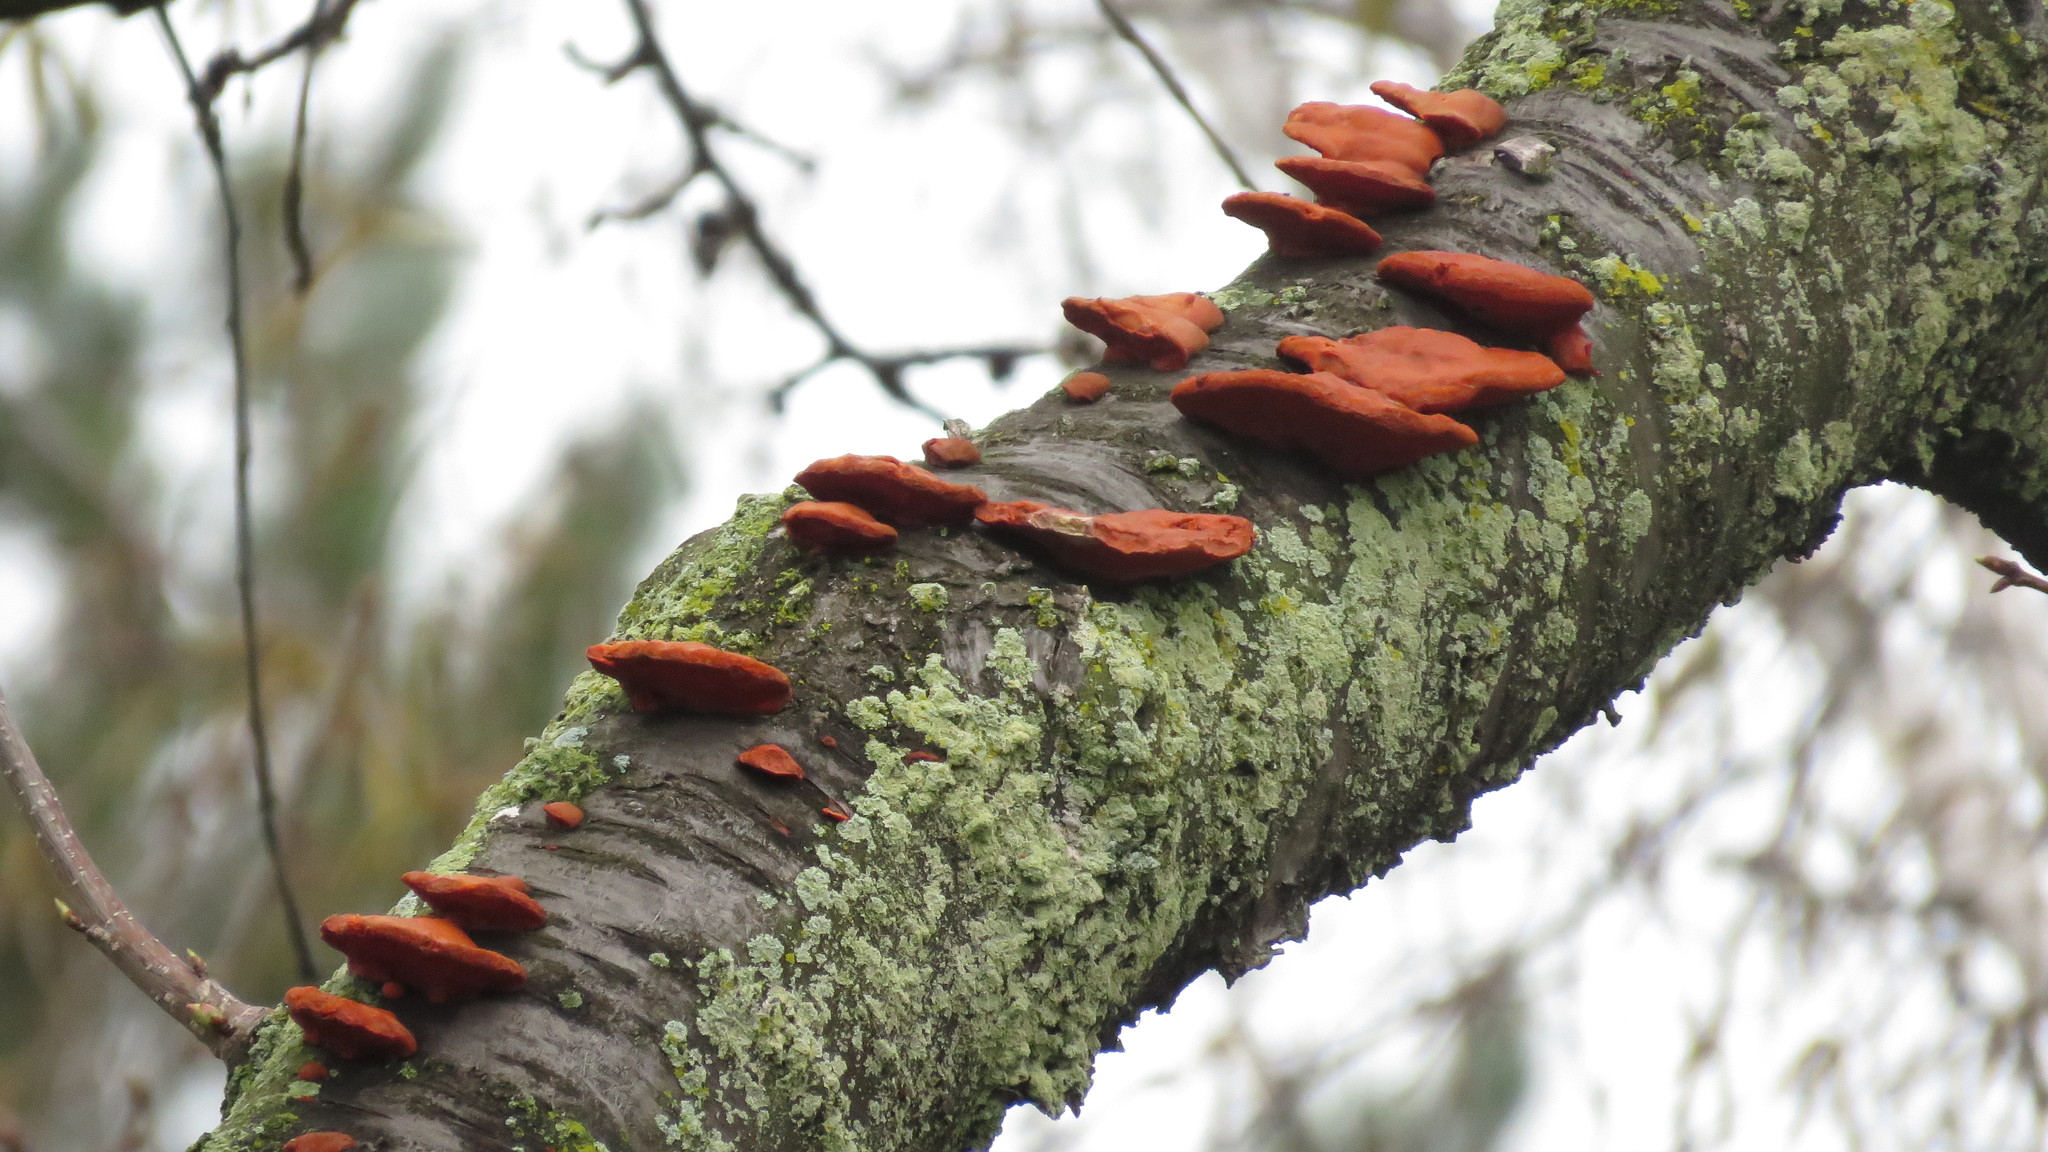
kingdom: Fungi
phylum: Basidiomycota
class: Agaricomycetes
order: Polyporales
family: Polyporaceae
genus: Trametes
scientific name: Trametes cinnabarina
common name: Northern cinnabar polypore
